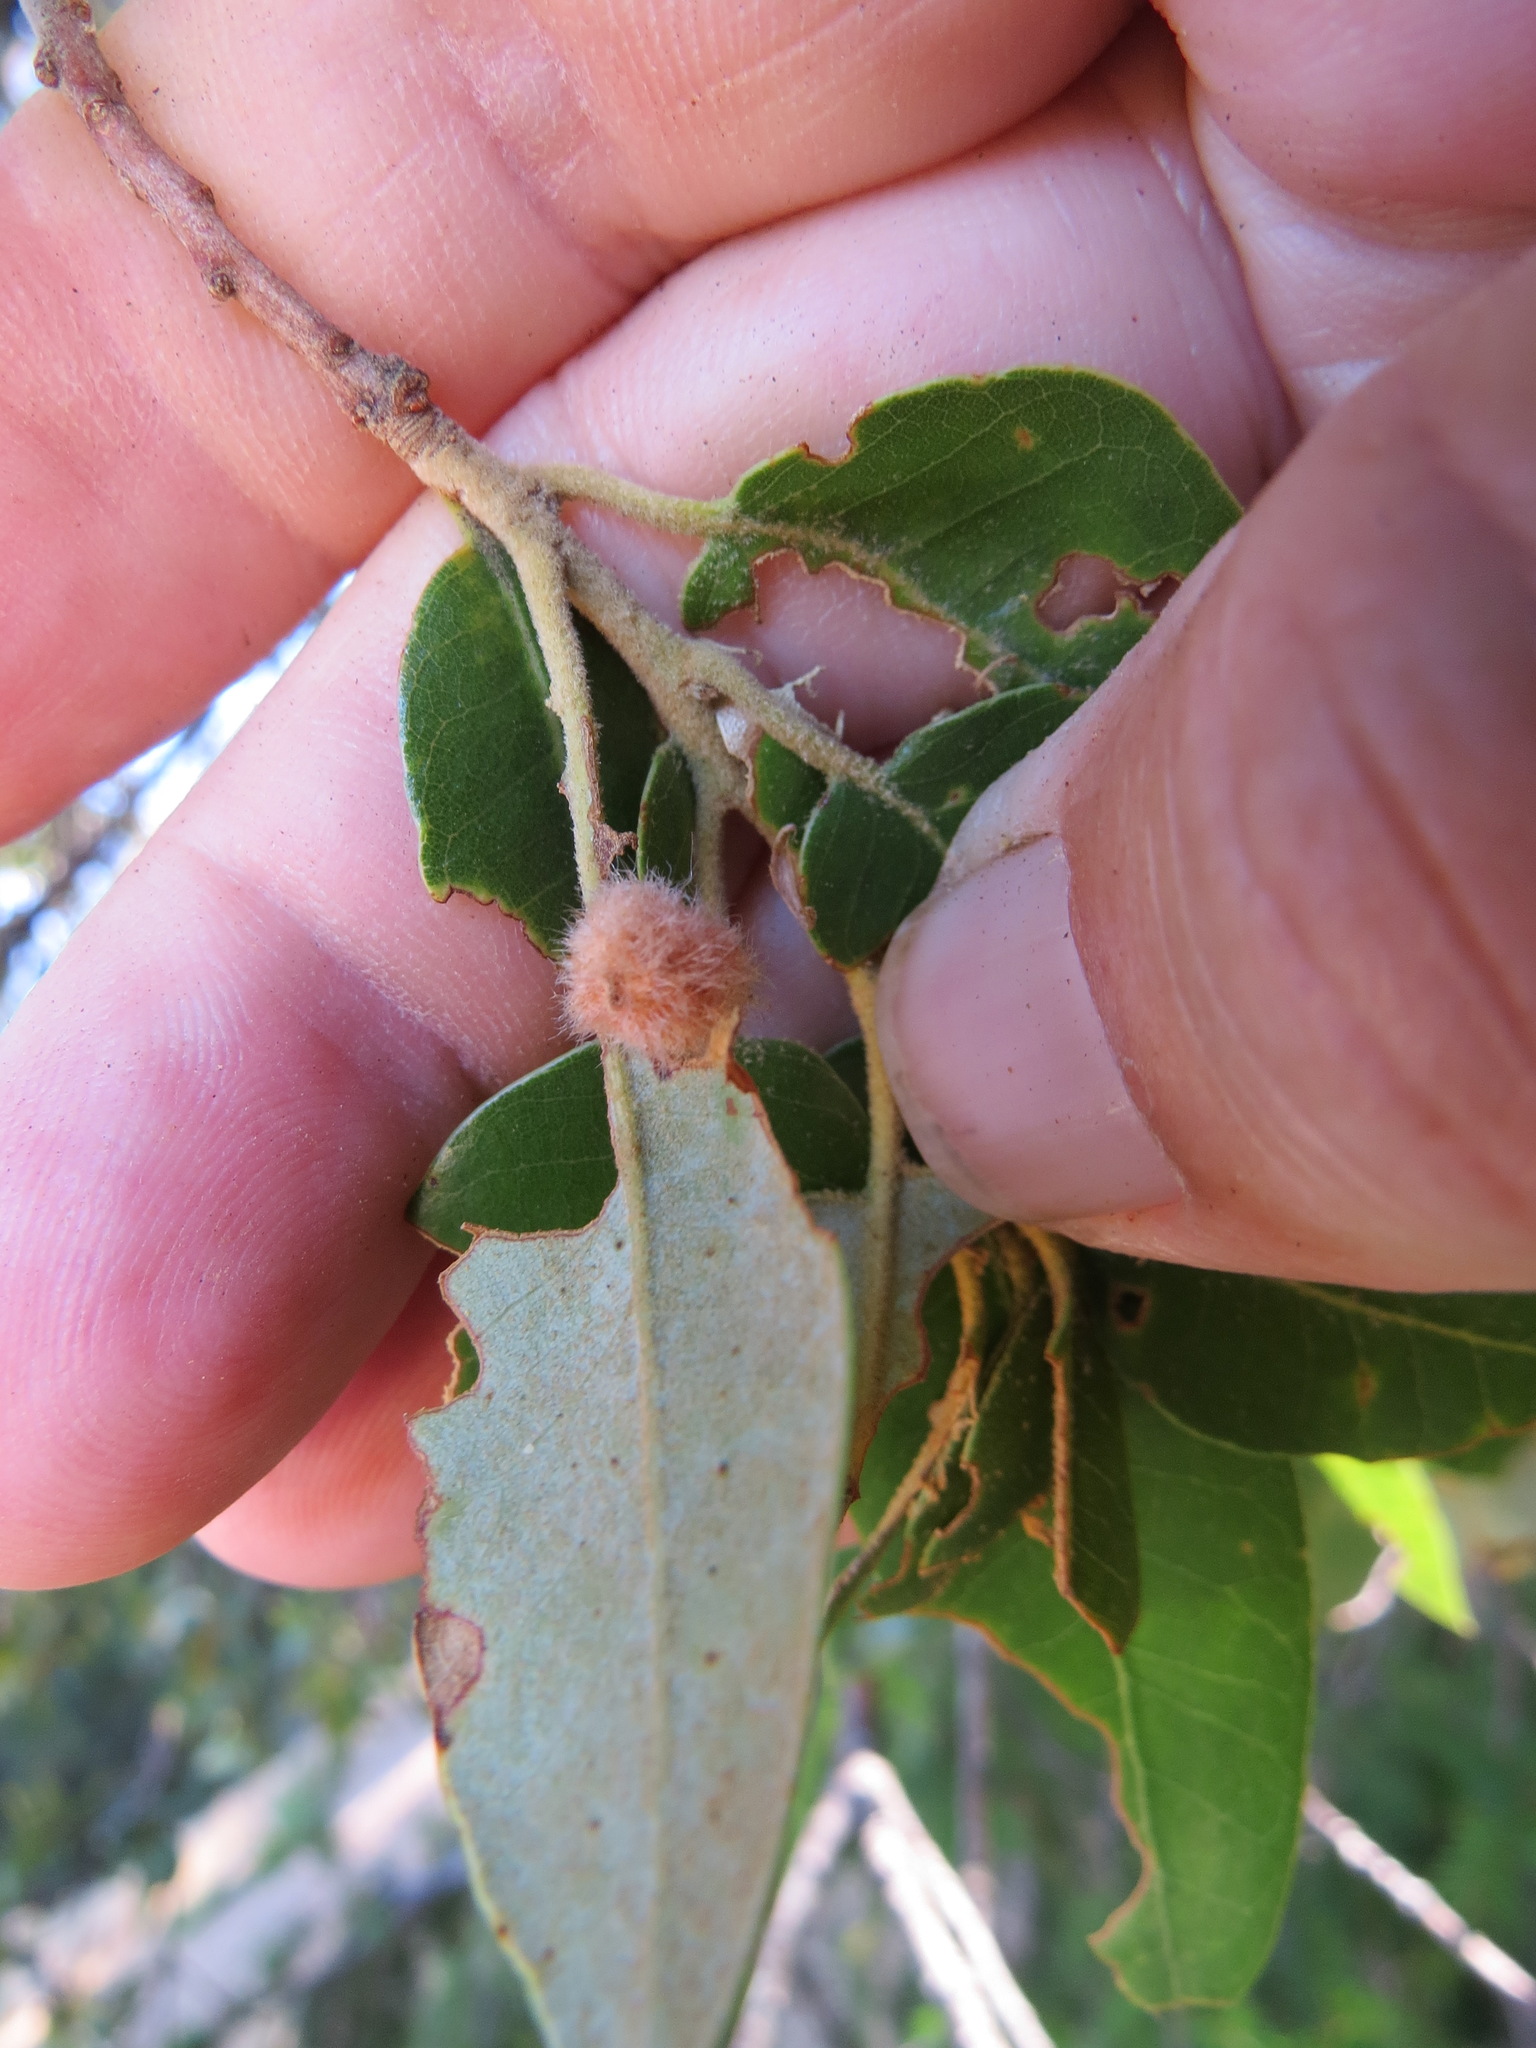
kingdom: Animalia
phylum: Arthropoda
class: Insecta
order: Hymenoptera
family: Cynipidae
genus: Disholandricus
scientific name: Disholandricus
